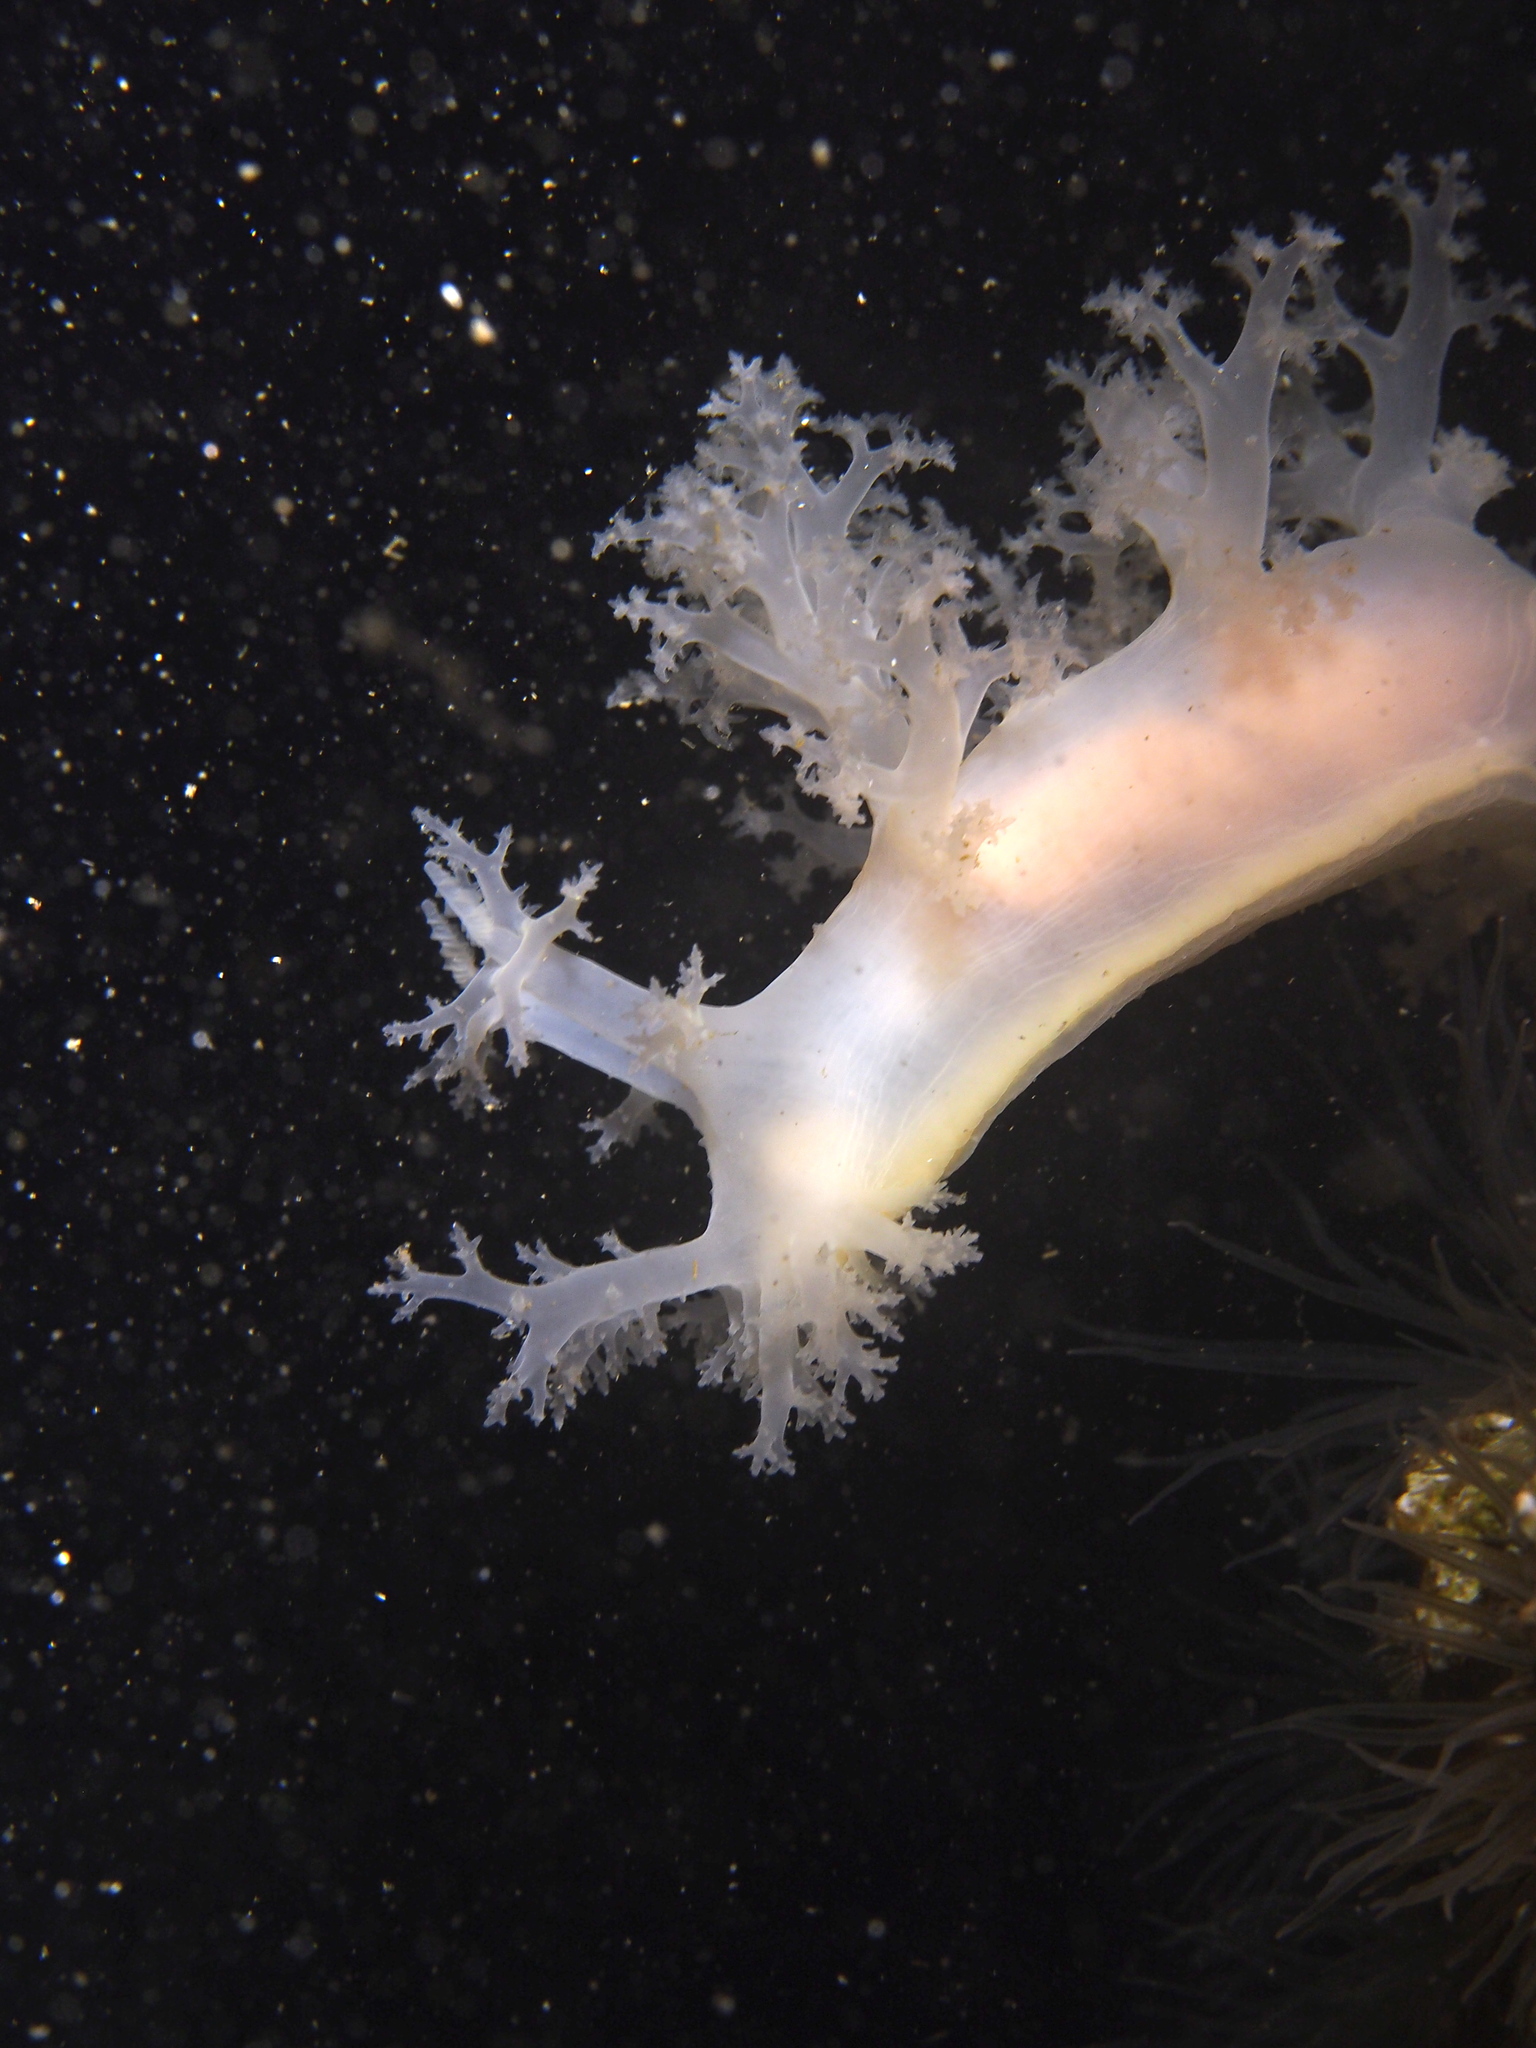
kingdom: Animalia
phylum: Mollusca
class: Gastropoda
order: Nudibranchia
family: Dendronotidae
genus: Dendronotus
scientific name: Dendronotus lacteus
